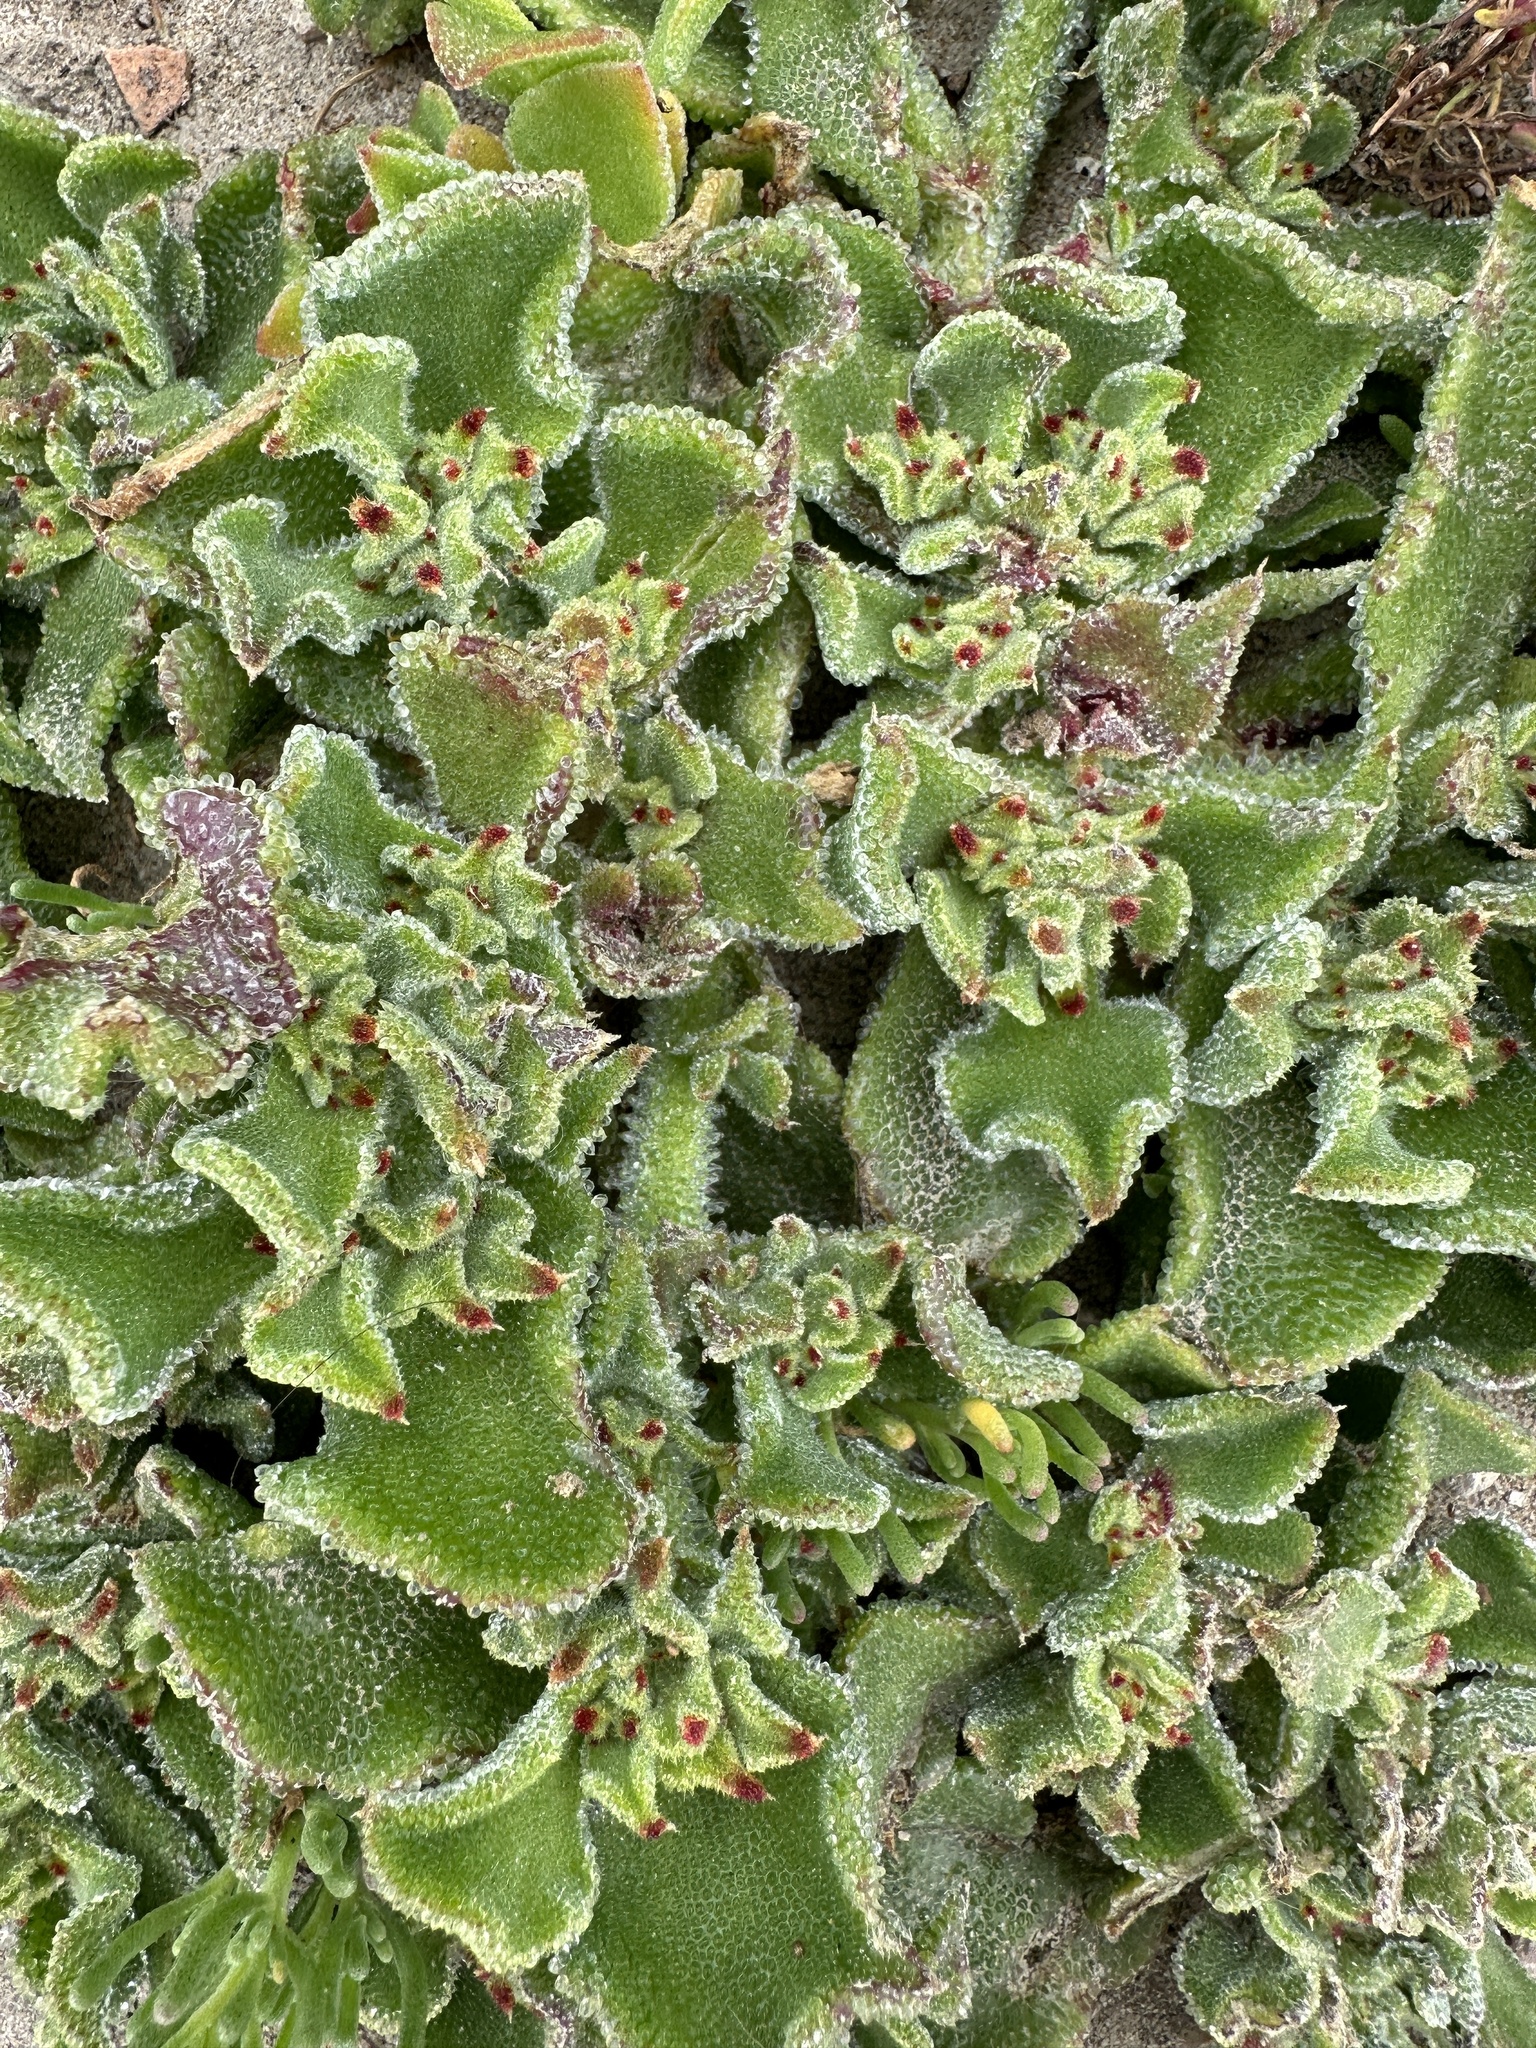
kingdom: Plantae
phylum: Tracheophyta
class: Magnoliopsida
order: Caryophyllales
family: Aizoaceae
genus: Mesembryanthemum
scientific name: Mesembryanthemum crystallinum
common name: Common iceplant
